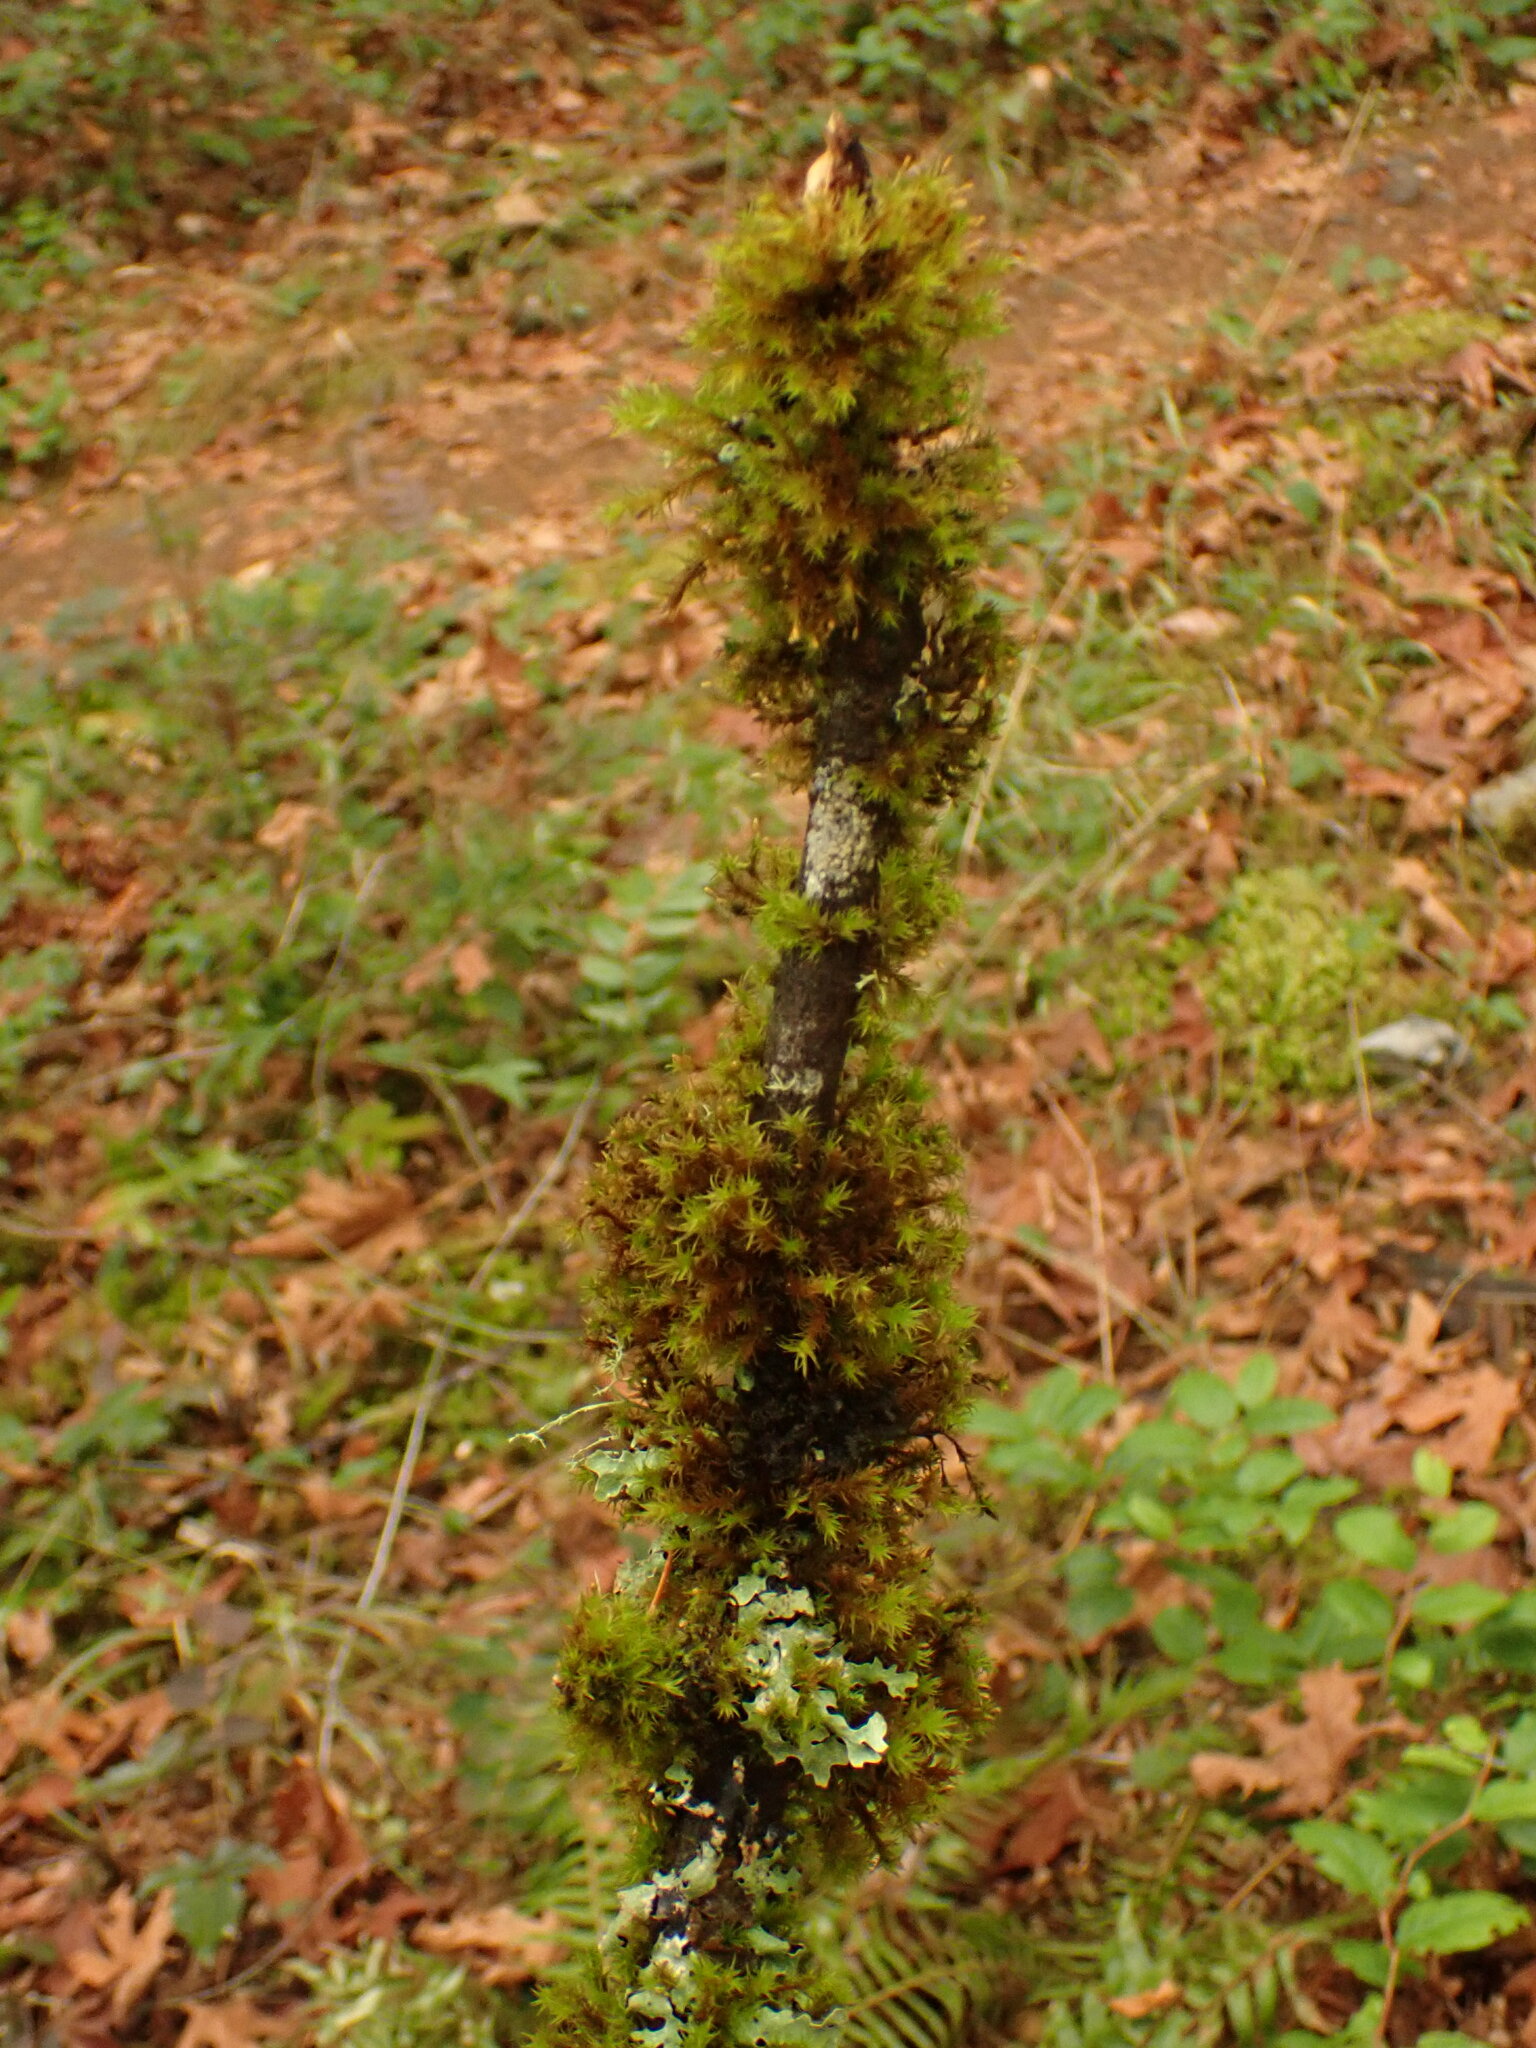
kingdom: Fungi
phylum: Ascomycota
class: Lecanoromycetes
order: Peltigerales
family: Collemataceae
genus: Scytinium
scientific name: Scytinium polycarpum
